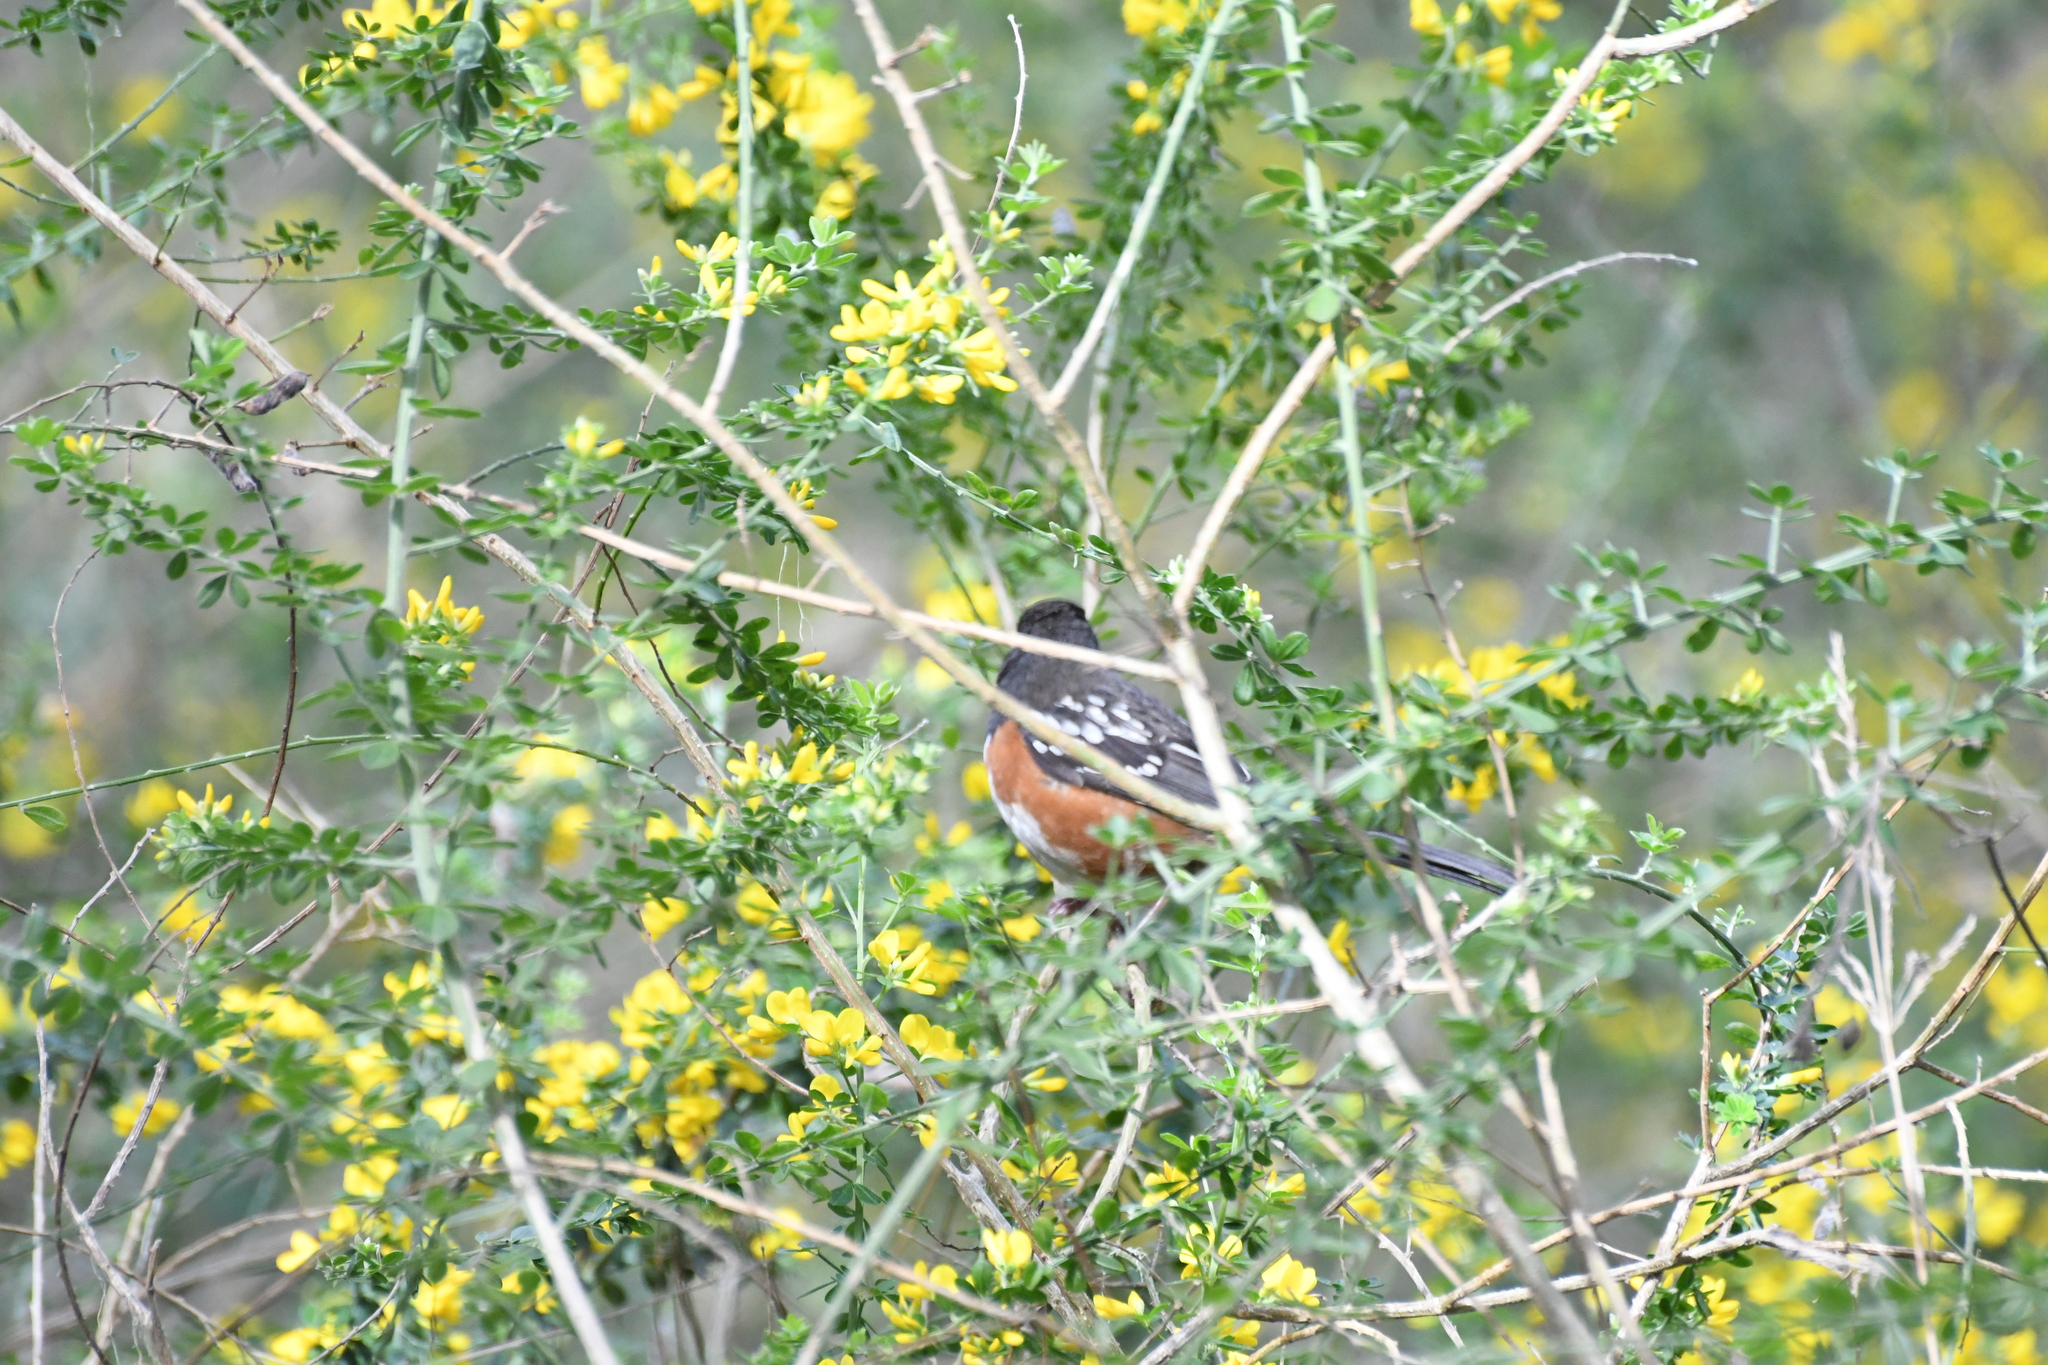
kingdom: Animalia
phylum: Chordata
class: Aves
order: Passeriformes
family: Passerellidae
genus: Pipilo
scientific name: Pipilo maculatus
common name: Spotted towhee
